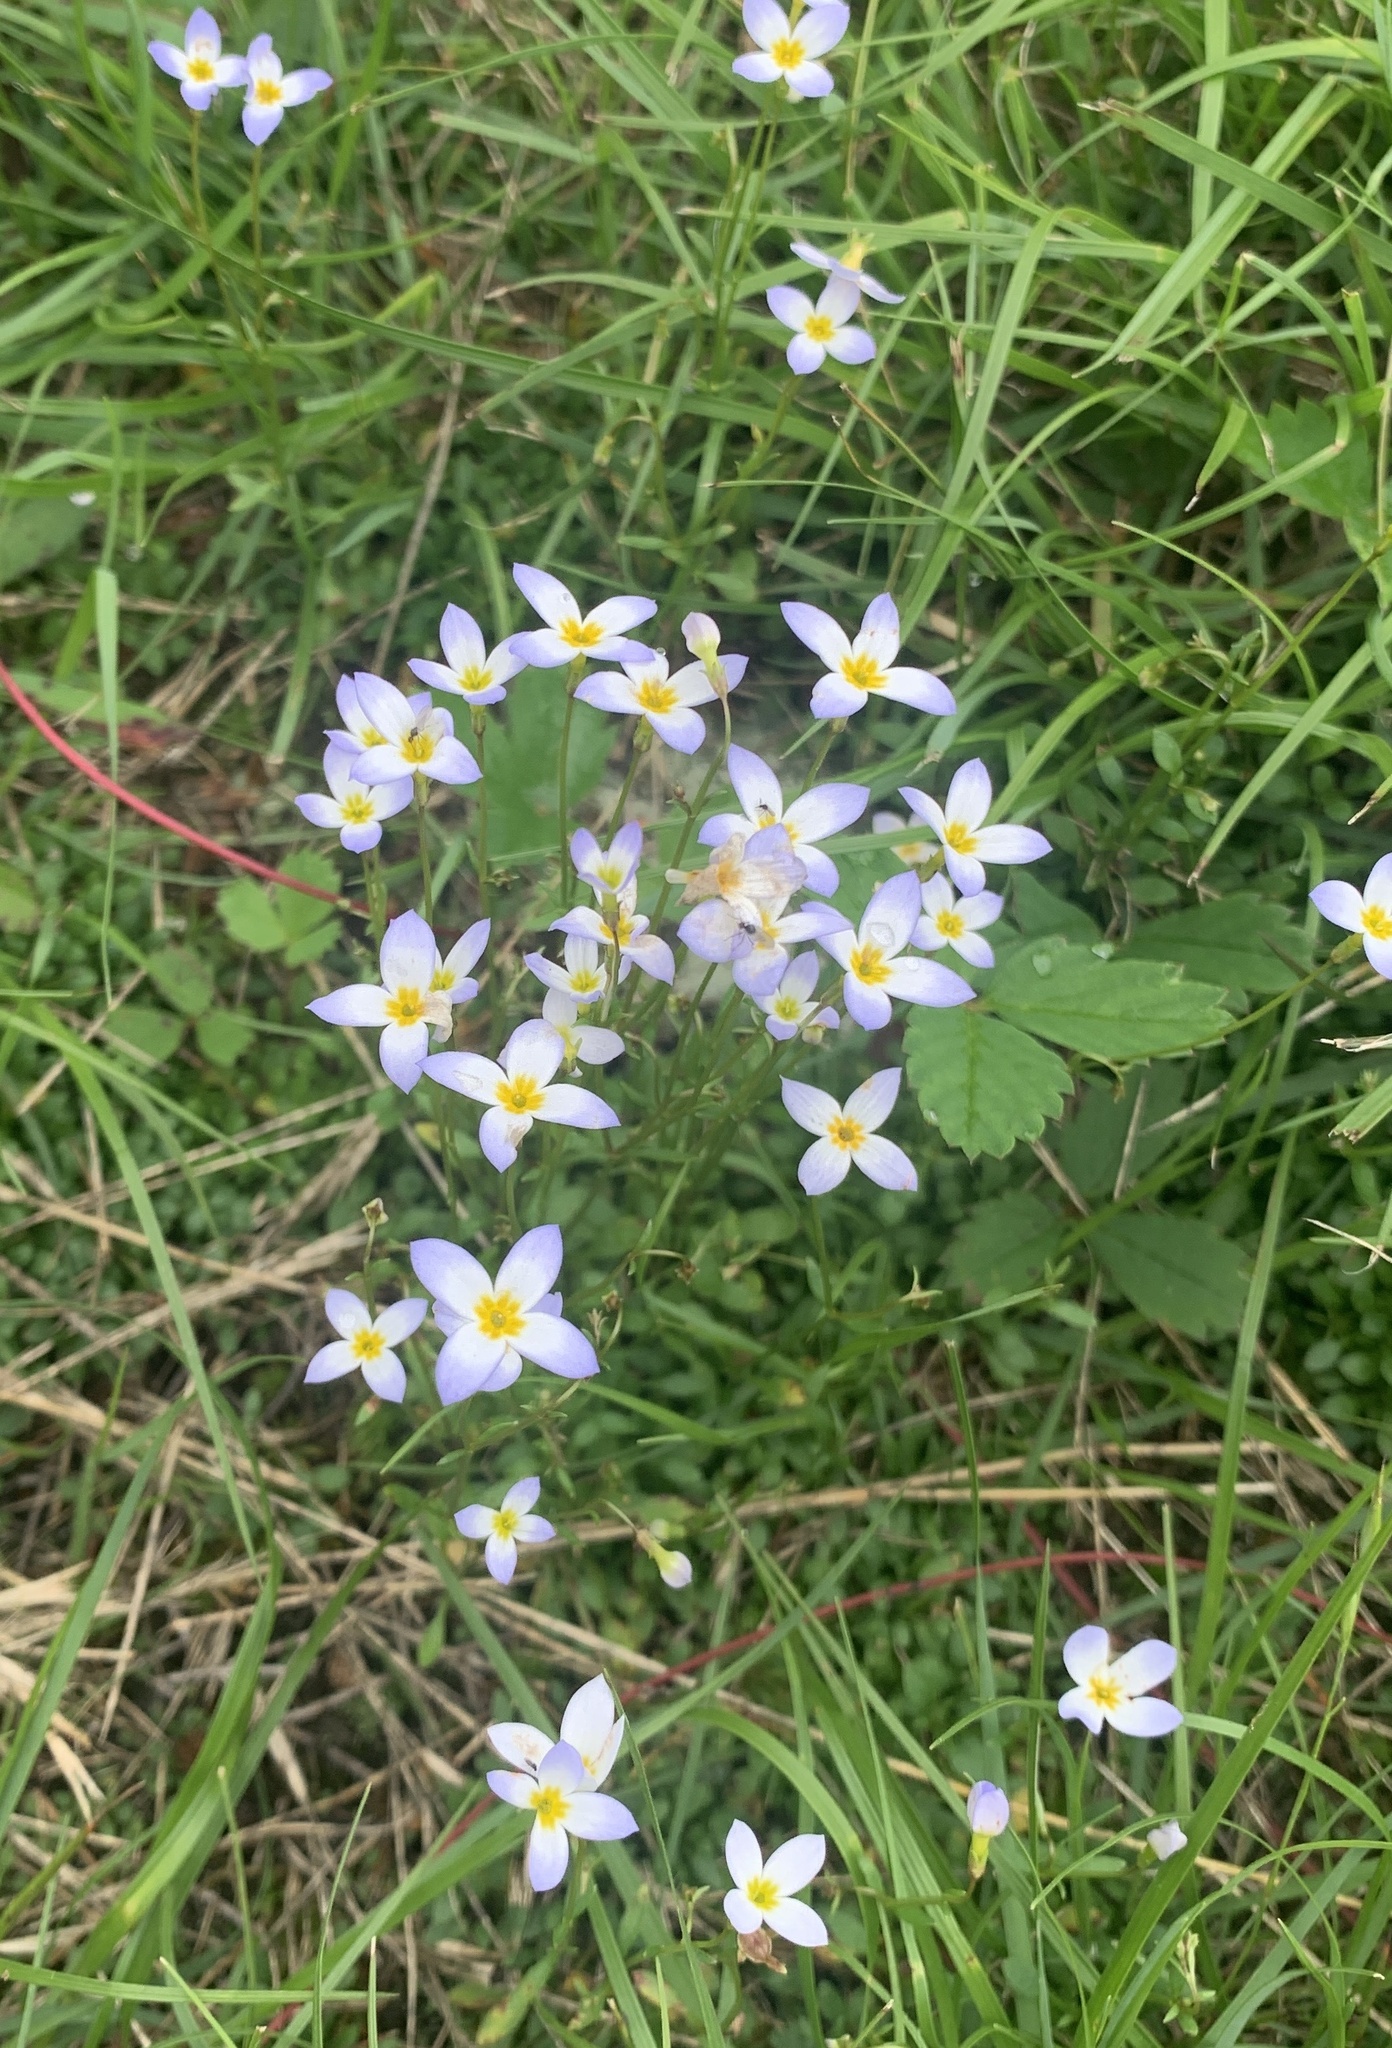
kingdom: Plantae
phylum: Tracheophyta
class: Magnoliopsida
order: Gentianales
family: Rubiaceae
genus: Houstonia
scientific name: Houstonia caerulea
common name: Bluets
